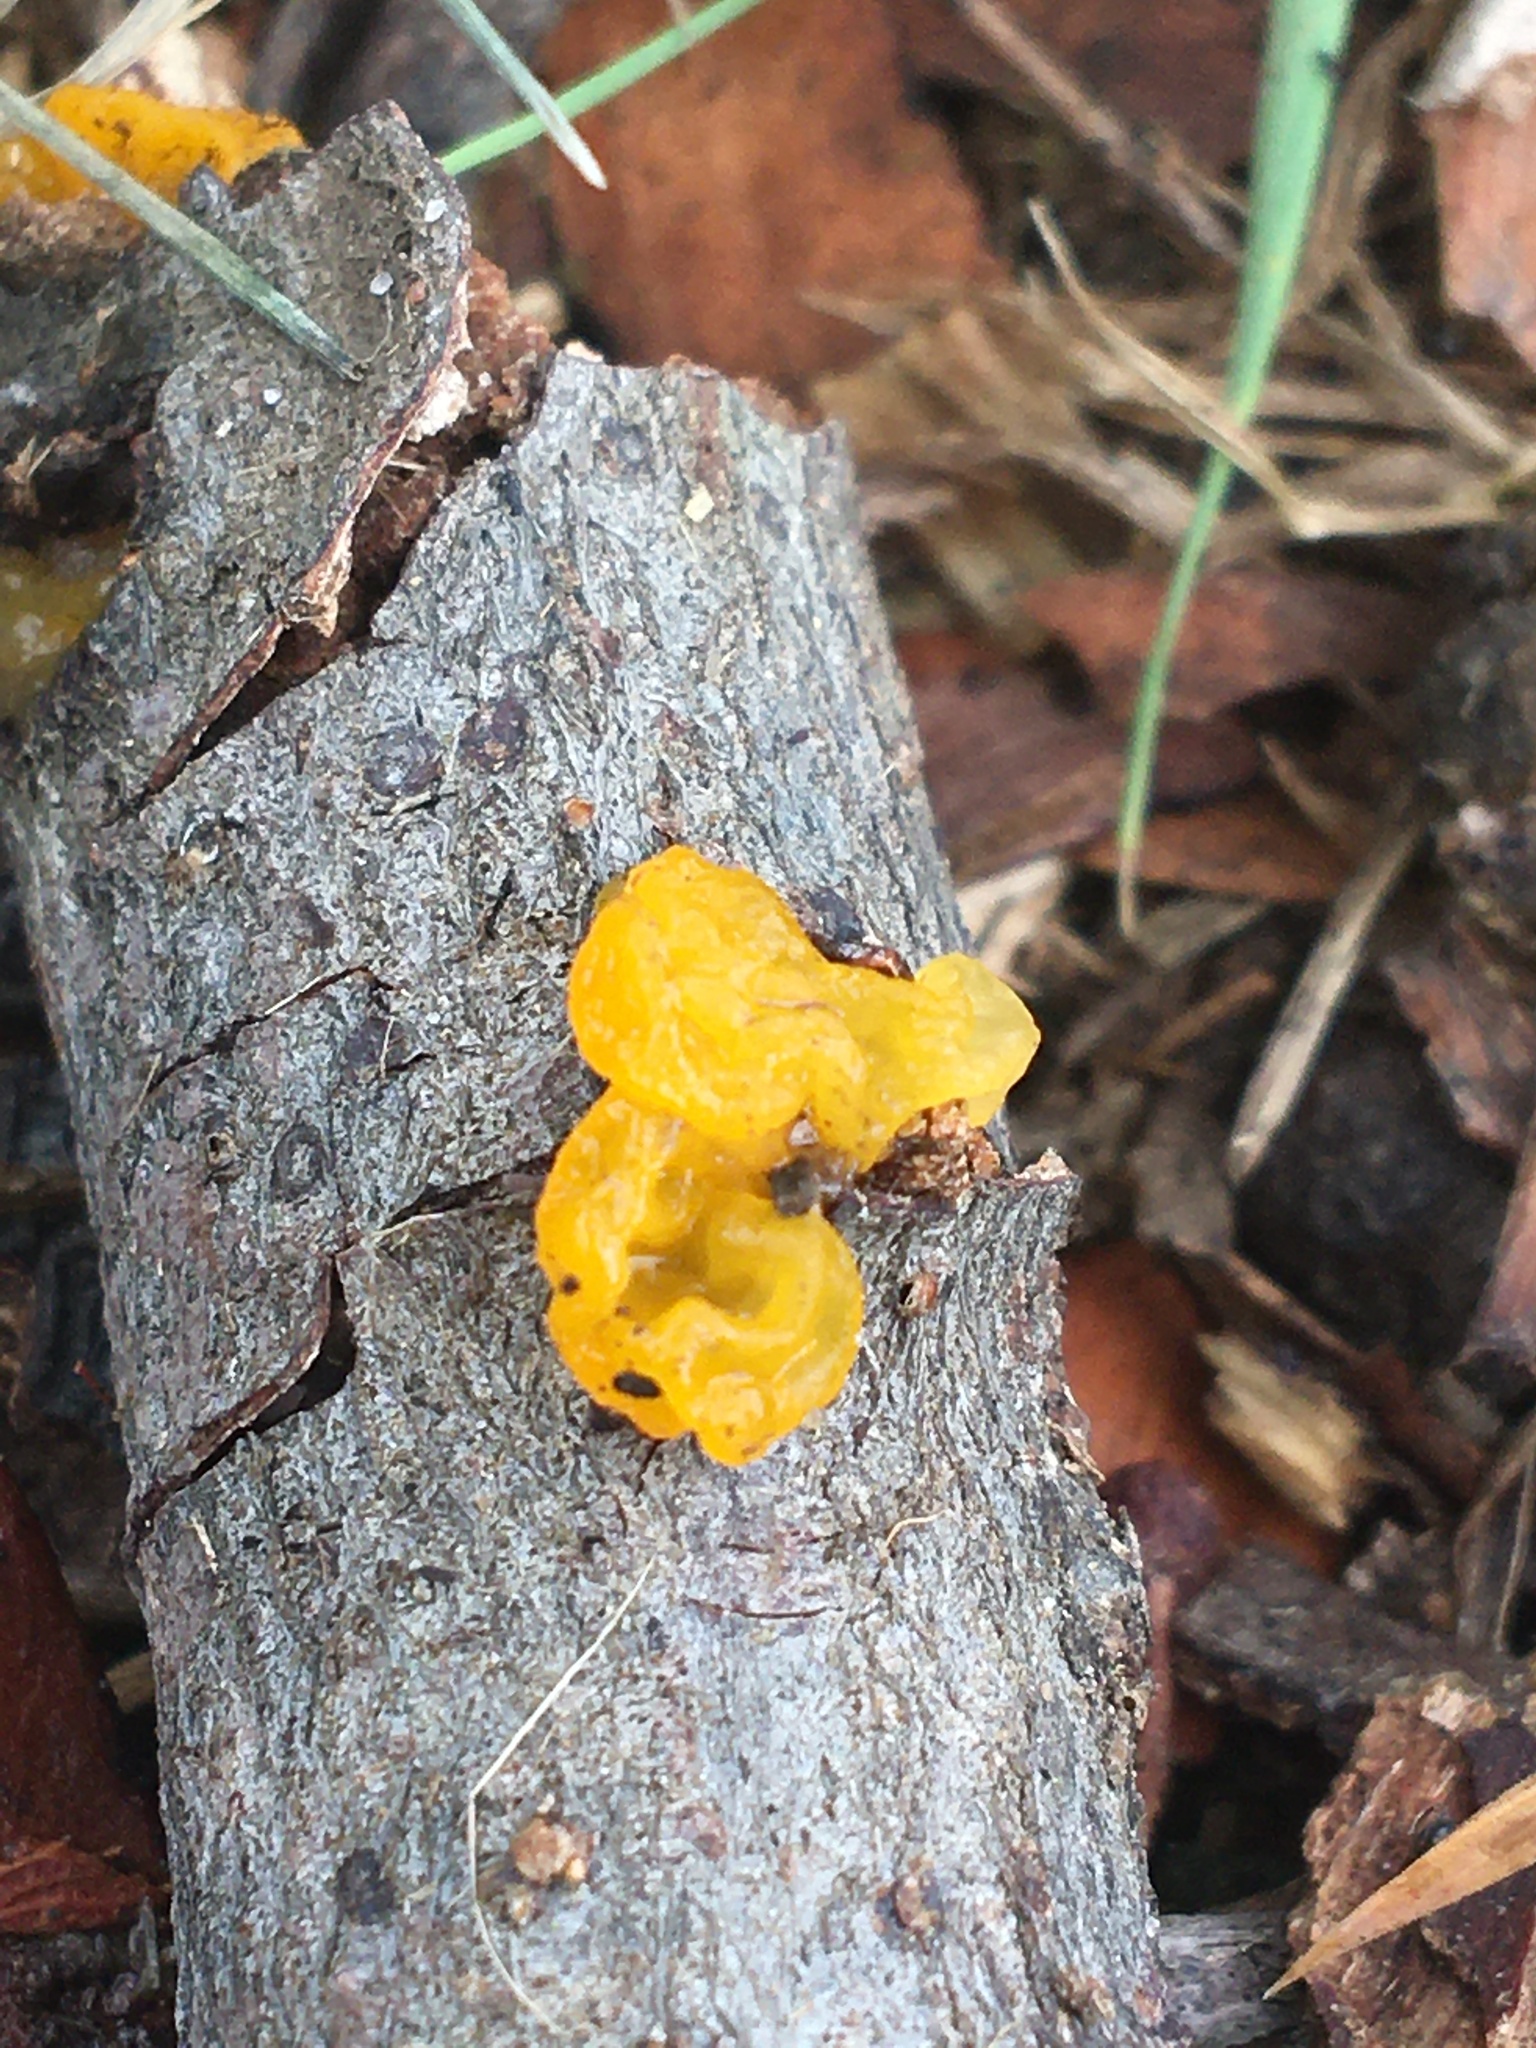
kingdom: Fungi
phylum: Basidiomycota
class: Tremellomycetes
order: Tremellales
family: Tremellaceae
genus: Tremella
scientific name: Tremella mesenterica
